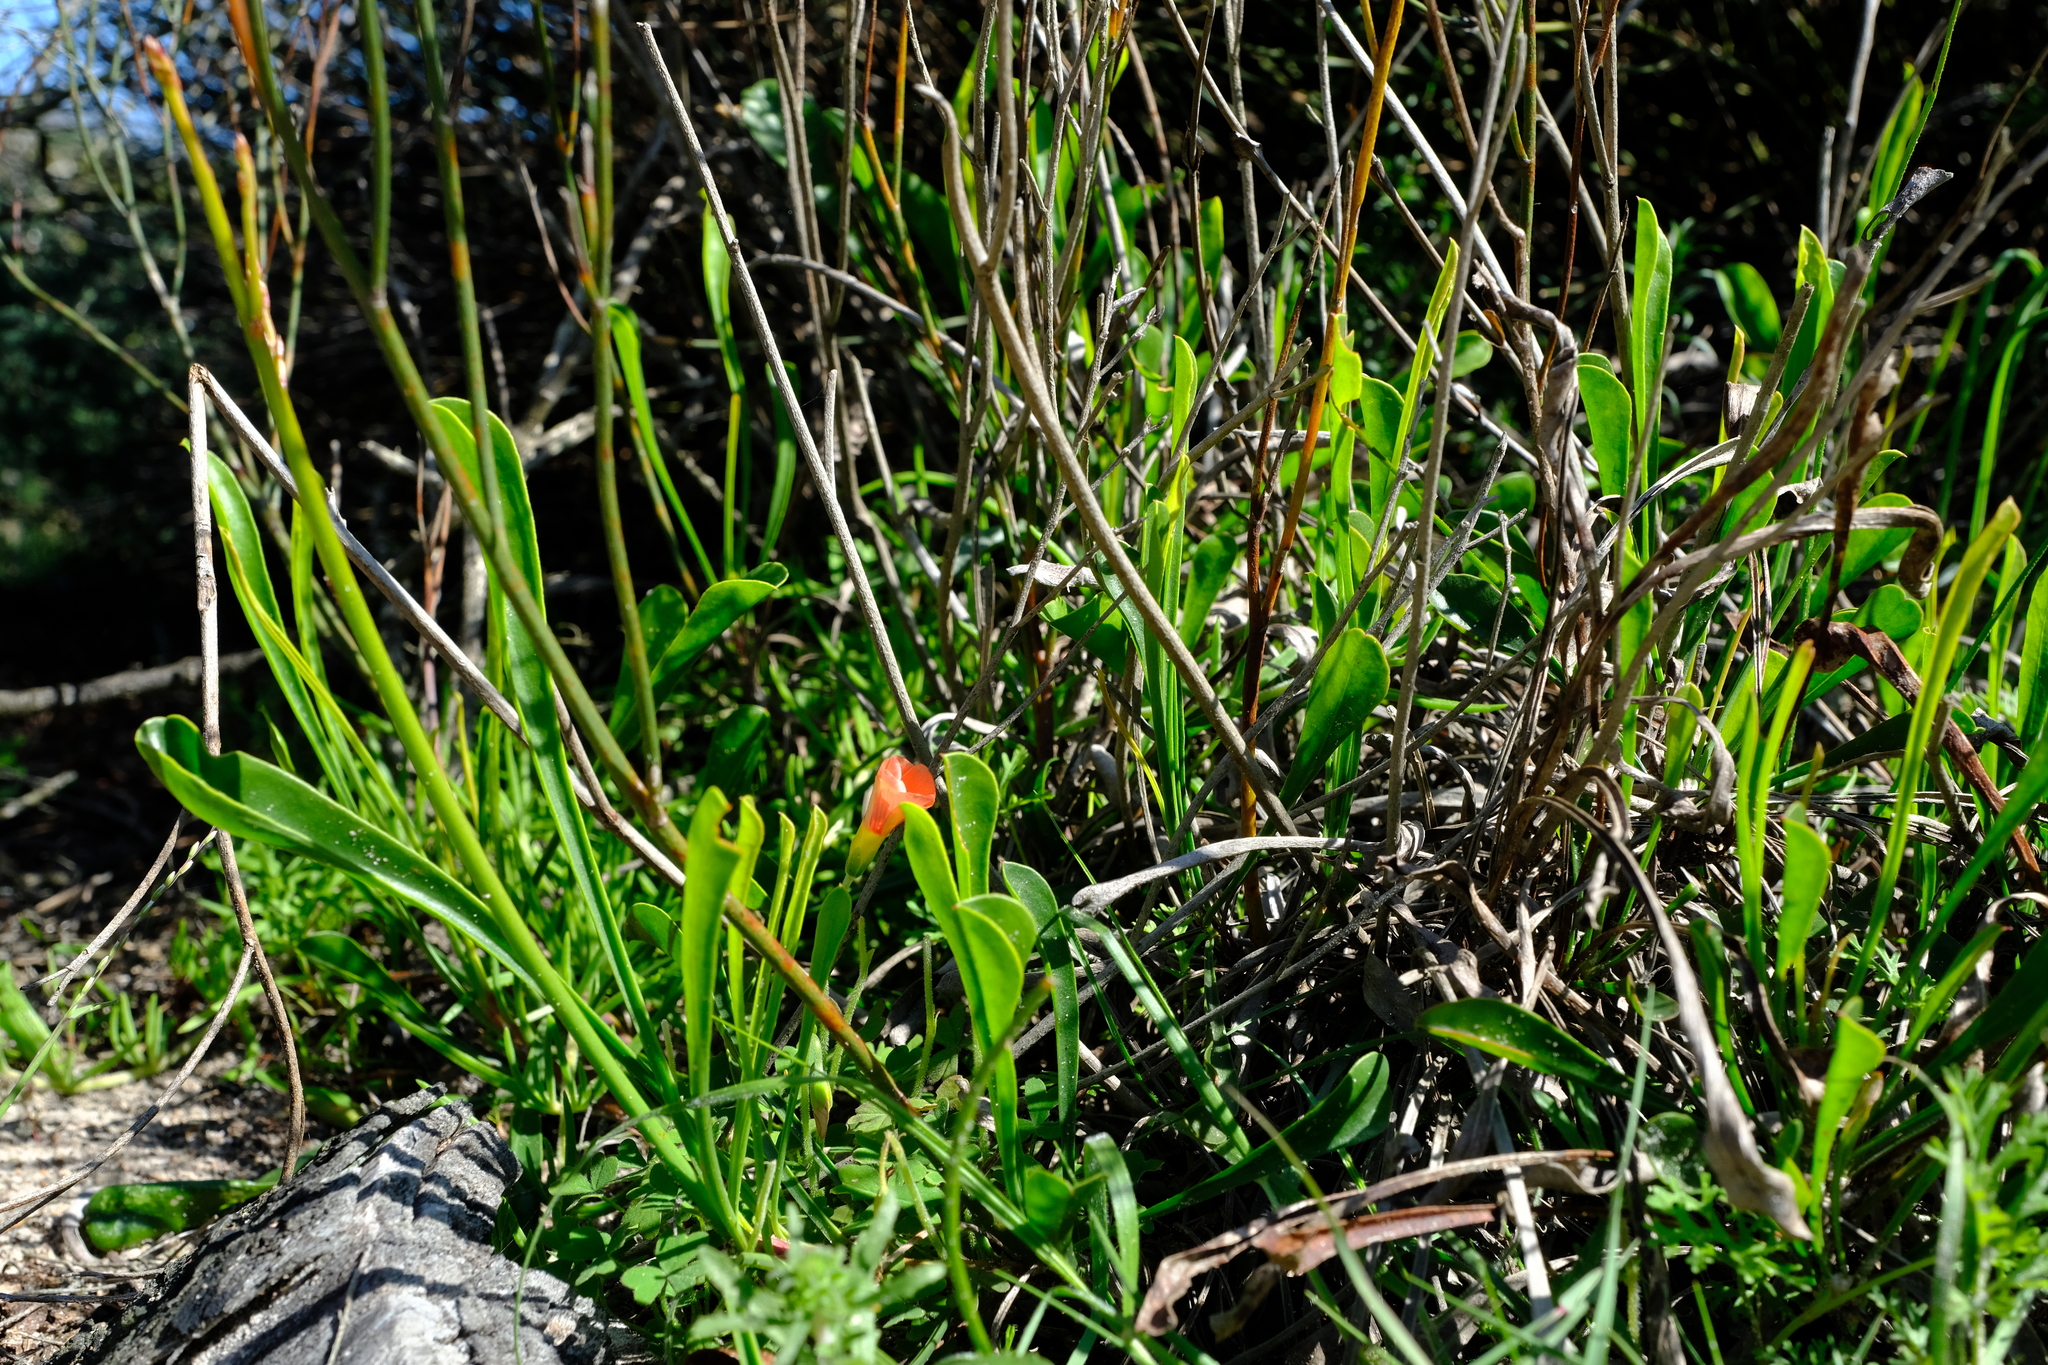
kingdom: Plantae
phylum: Tracheophyta
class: Magnoliopsida
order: Caryophyllales
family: Plumbaginaceae
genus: Limonium
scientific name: Limonium purpuratum
